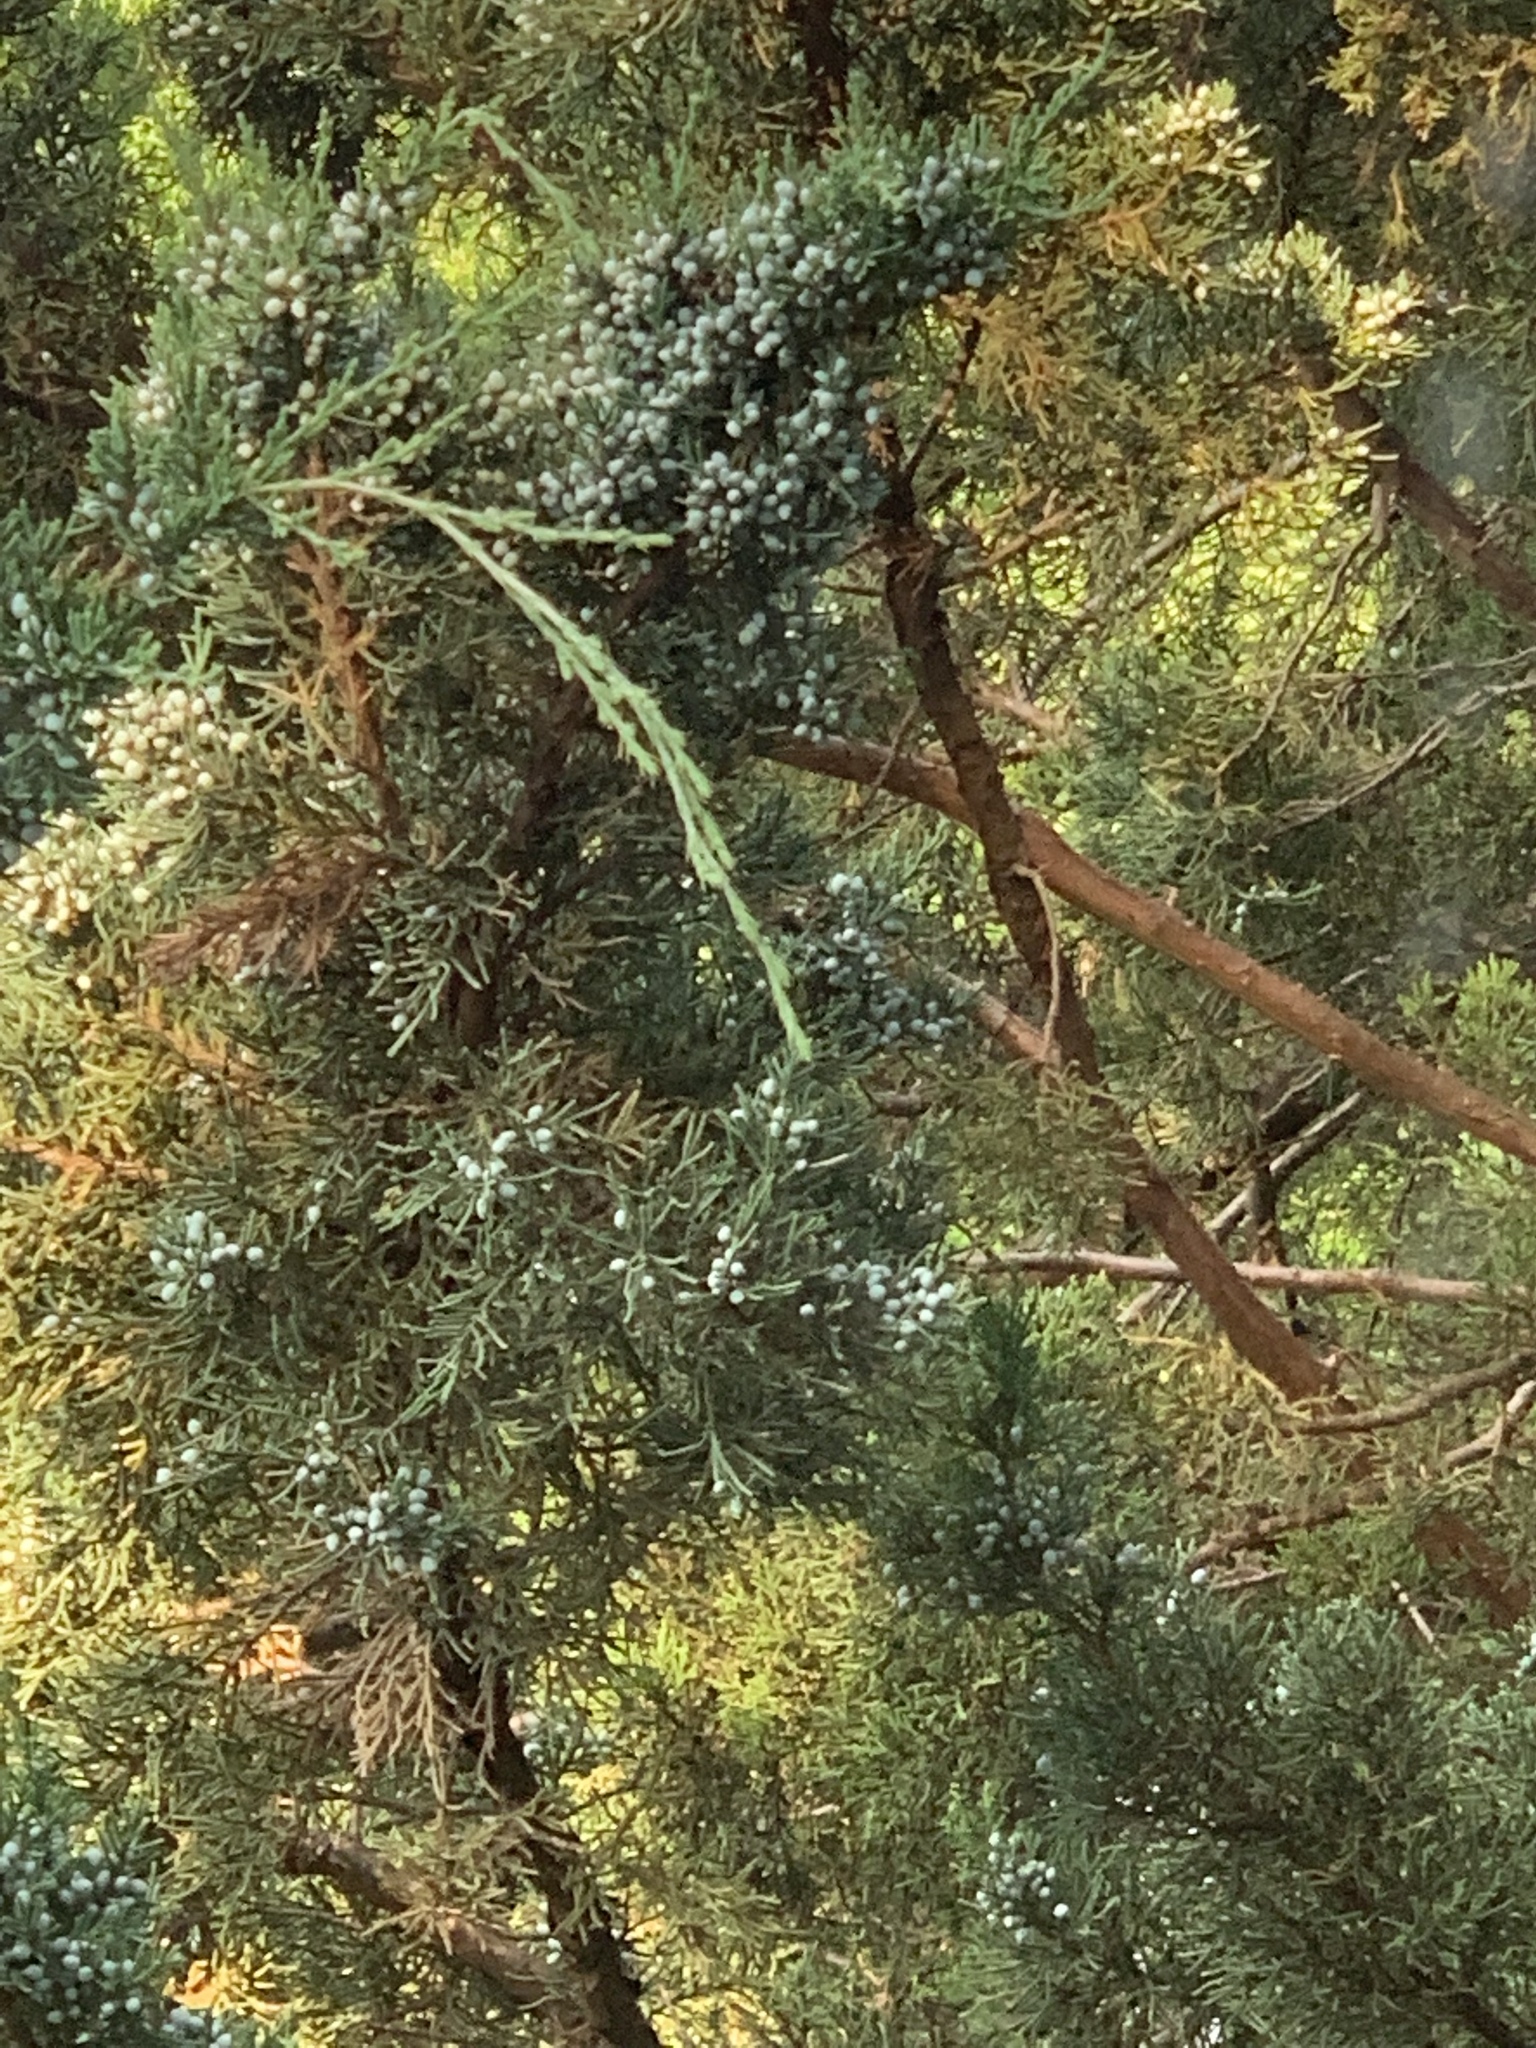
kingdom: Plantae
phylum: Tracheophyta
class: Pinopsida
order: Pinales
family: Cupressaceae
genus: Juniperus
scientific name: Juniperus virginiana
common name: Red juniper
